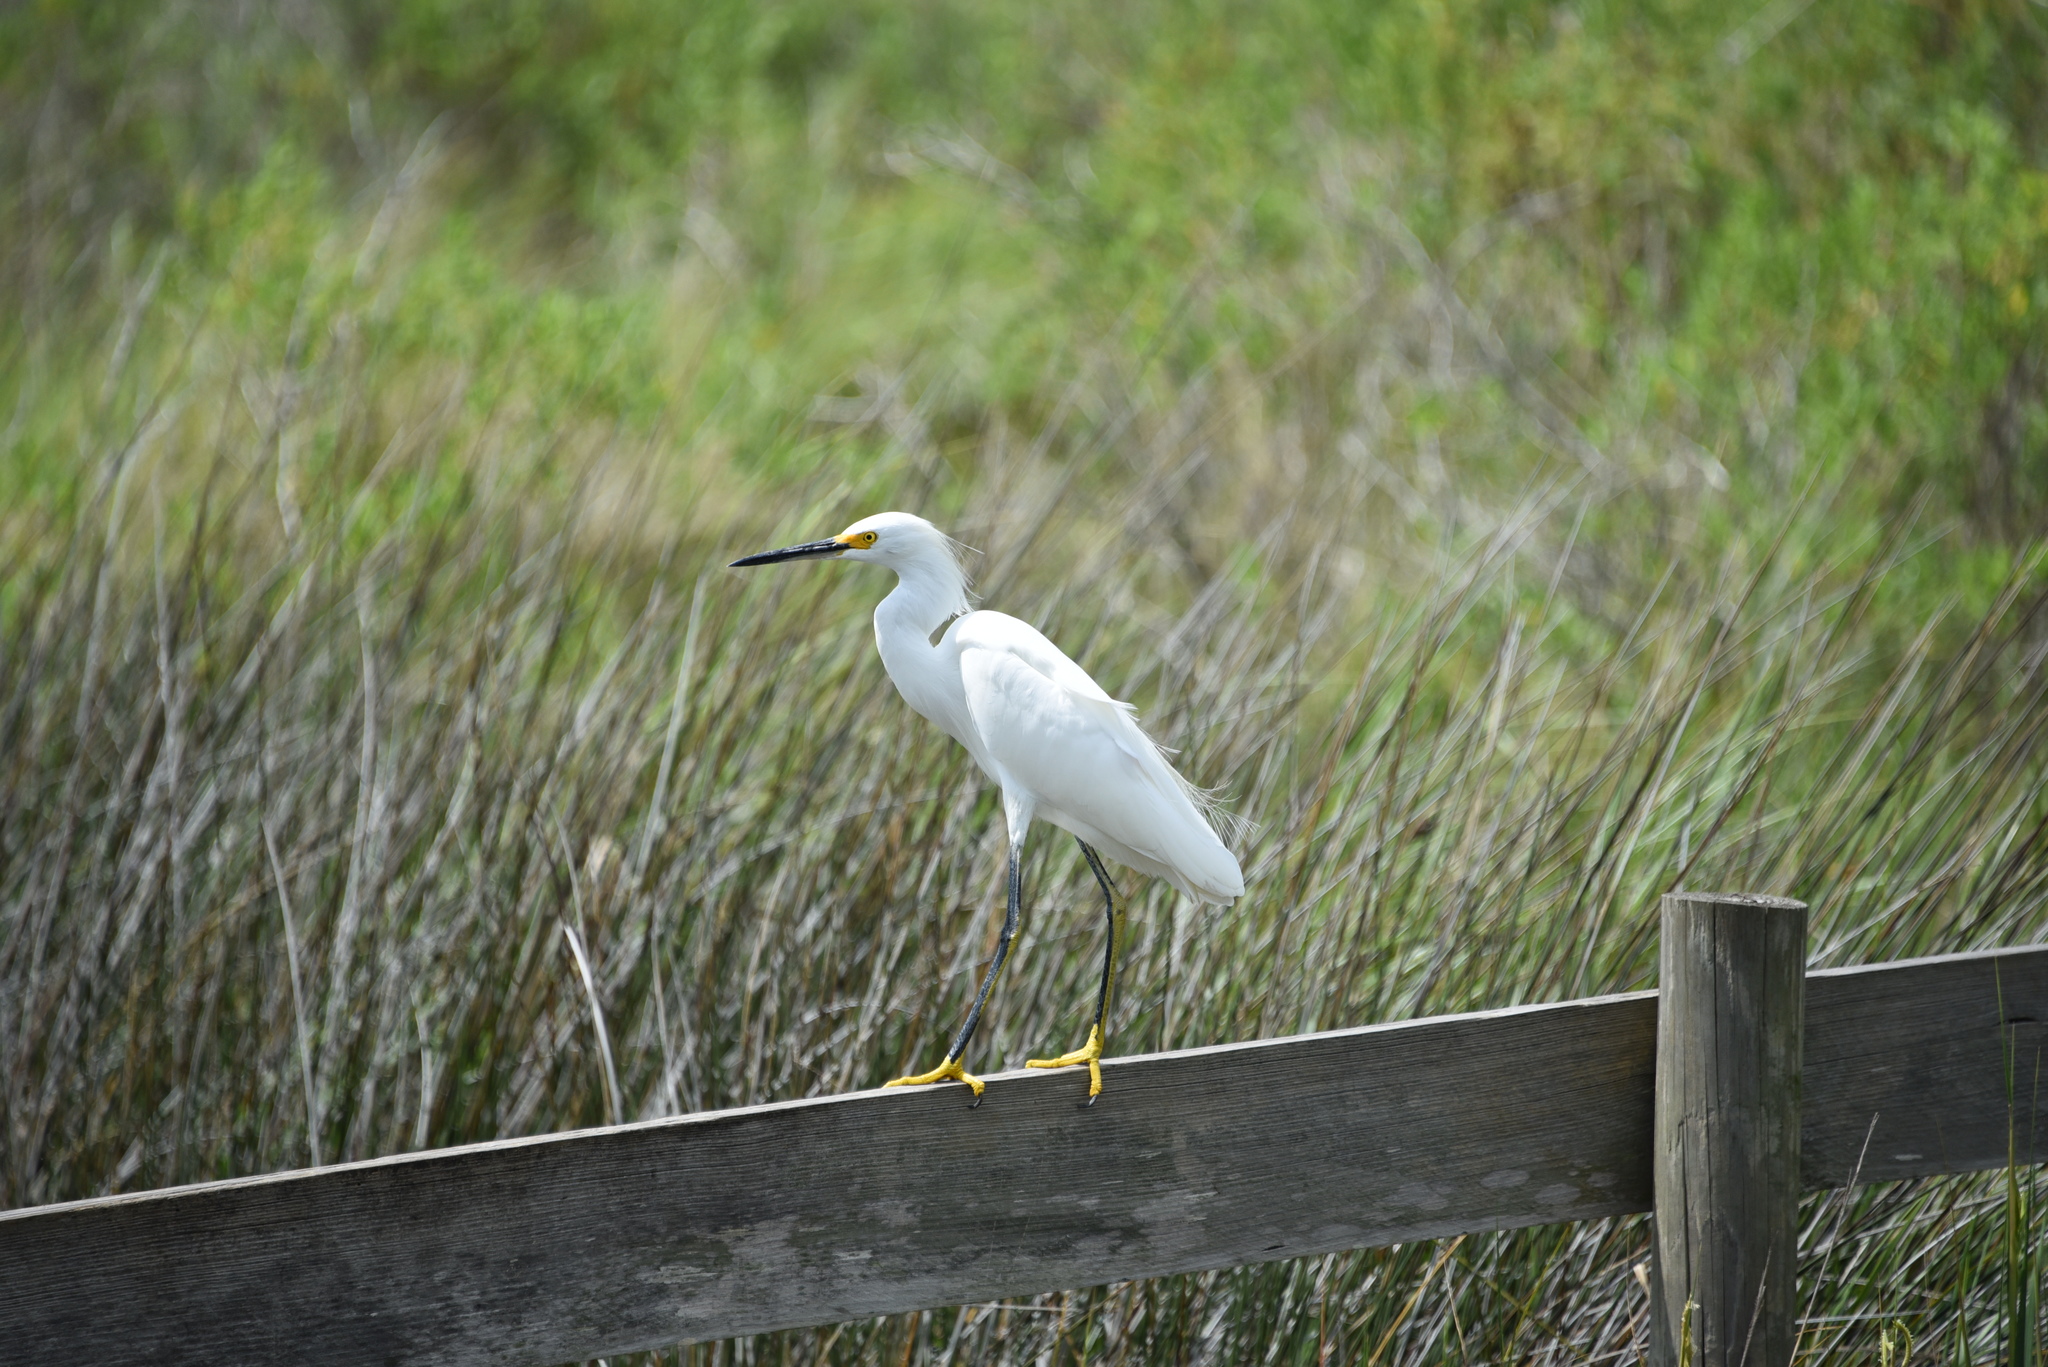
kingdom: Animalia
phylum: Chordata
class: Aves
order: Pelecaniformes
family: Ardeidae
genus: Egretta
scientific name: Egretta thula
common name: Snowy egret
